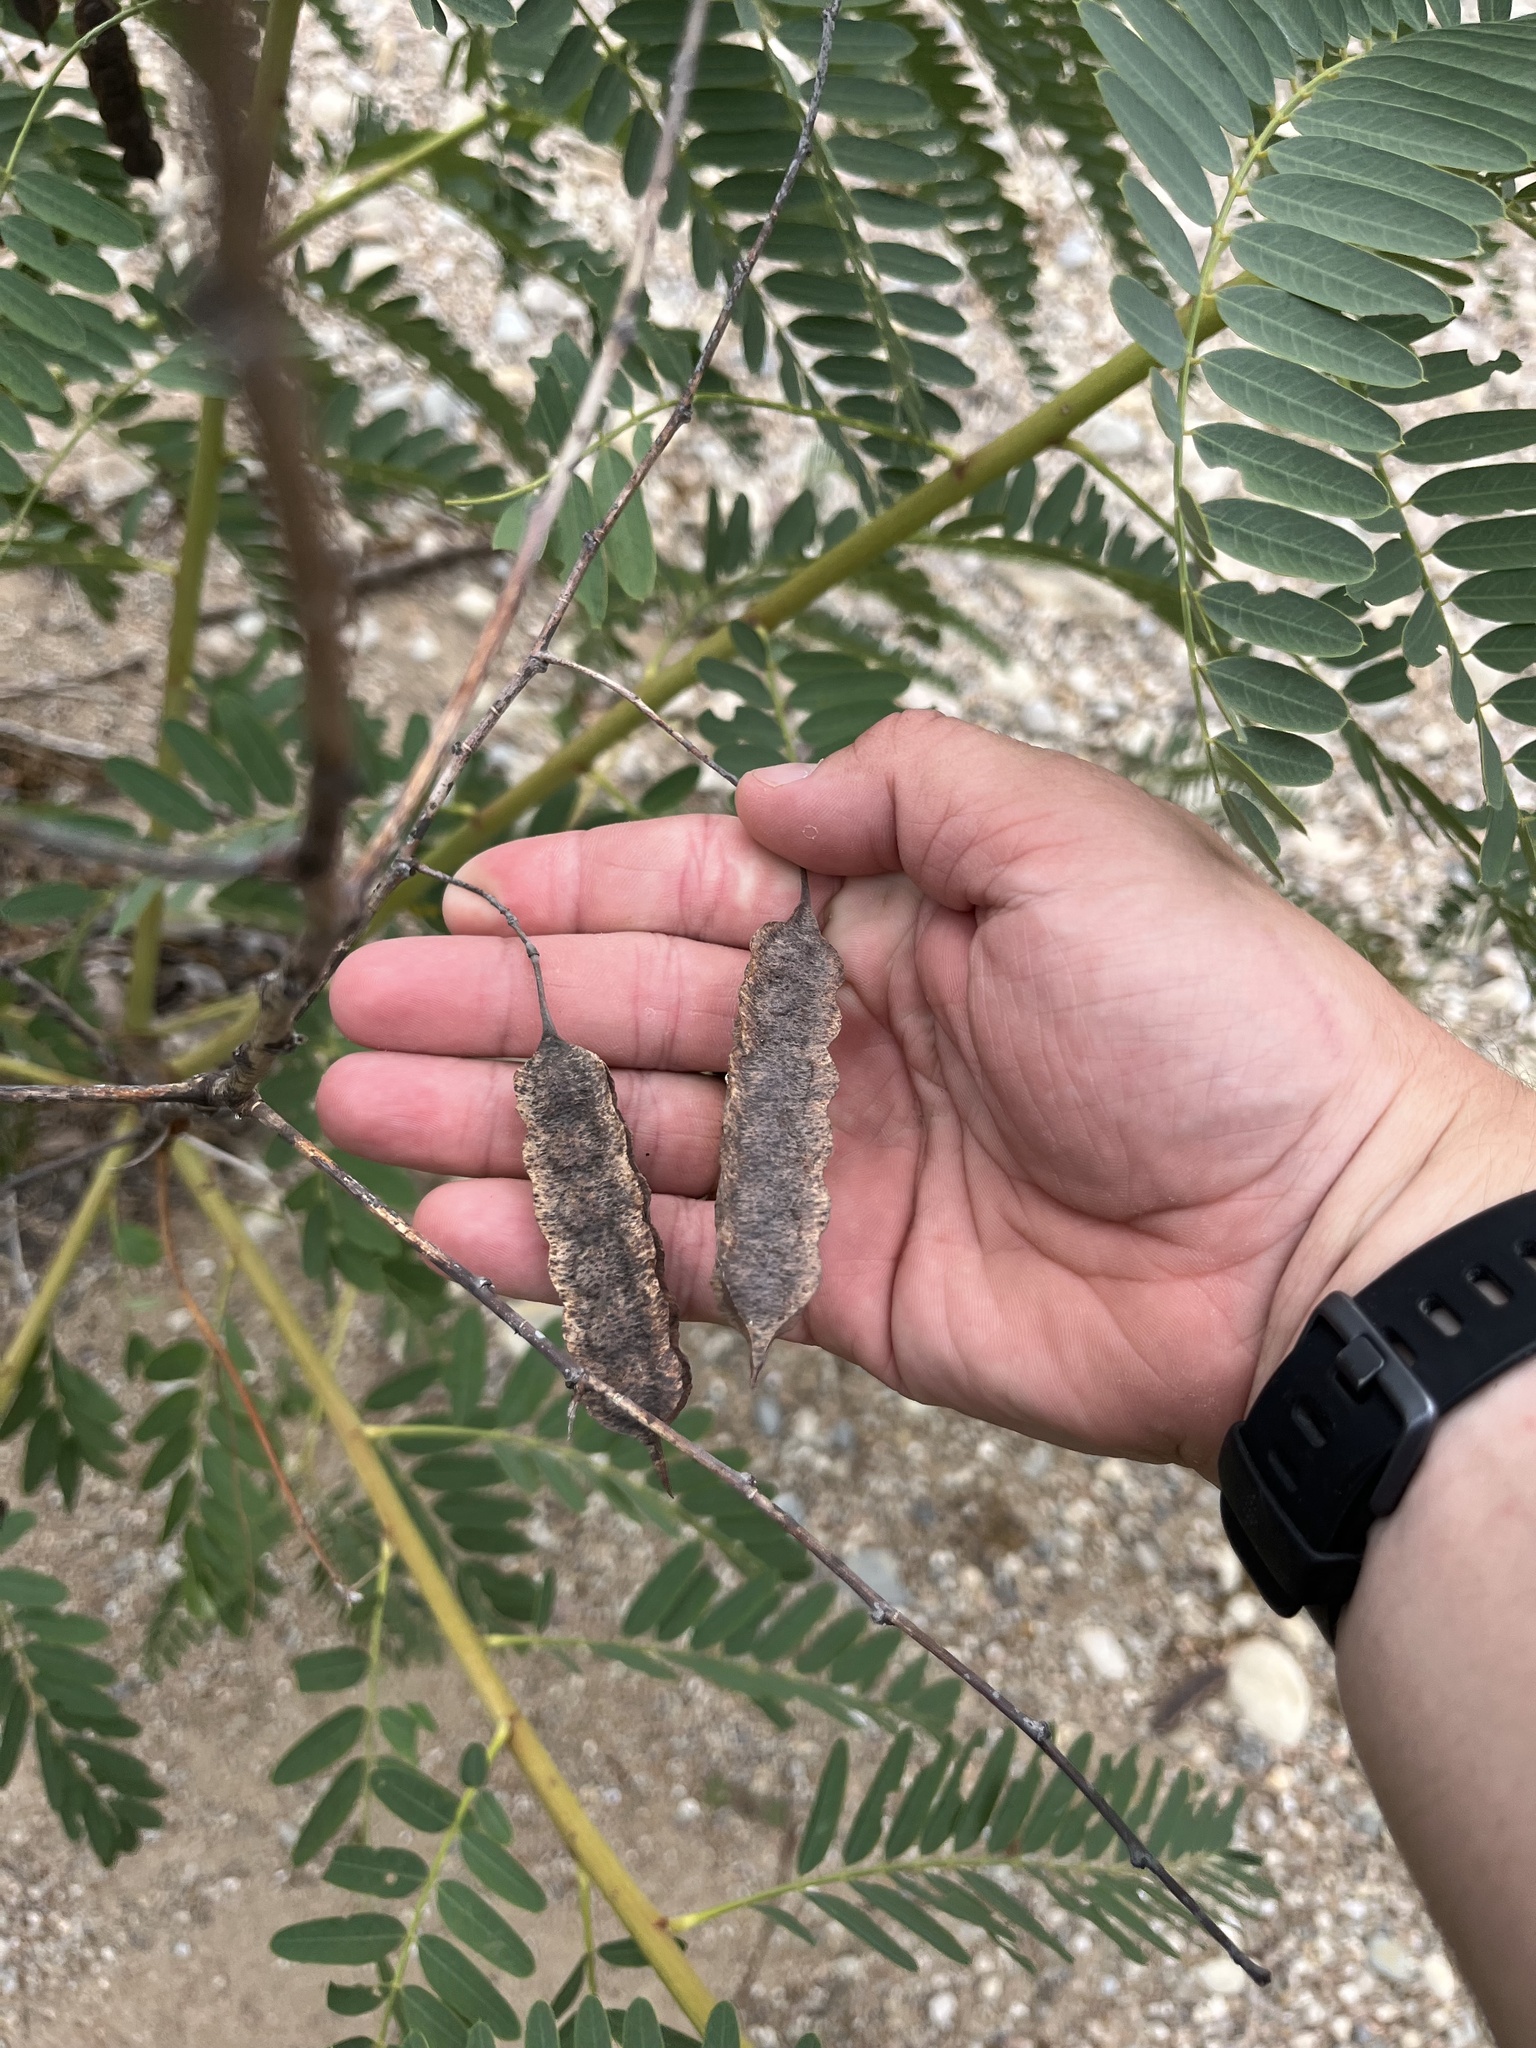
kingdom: Plantae
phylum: Tracheophyta
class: Magnoliopsida
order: Fabales
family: Fabaceae
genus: Sesbania
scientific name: Sesbania drummondii
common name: Poison-bean
